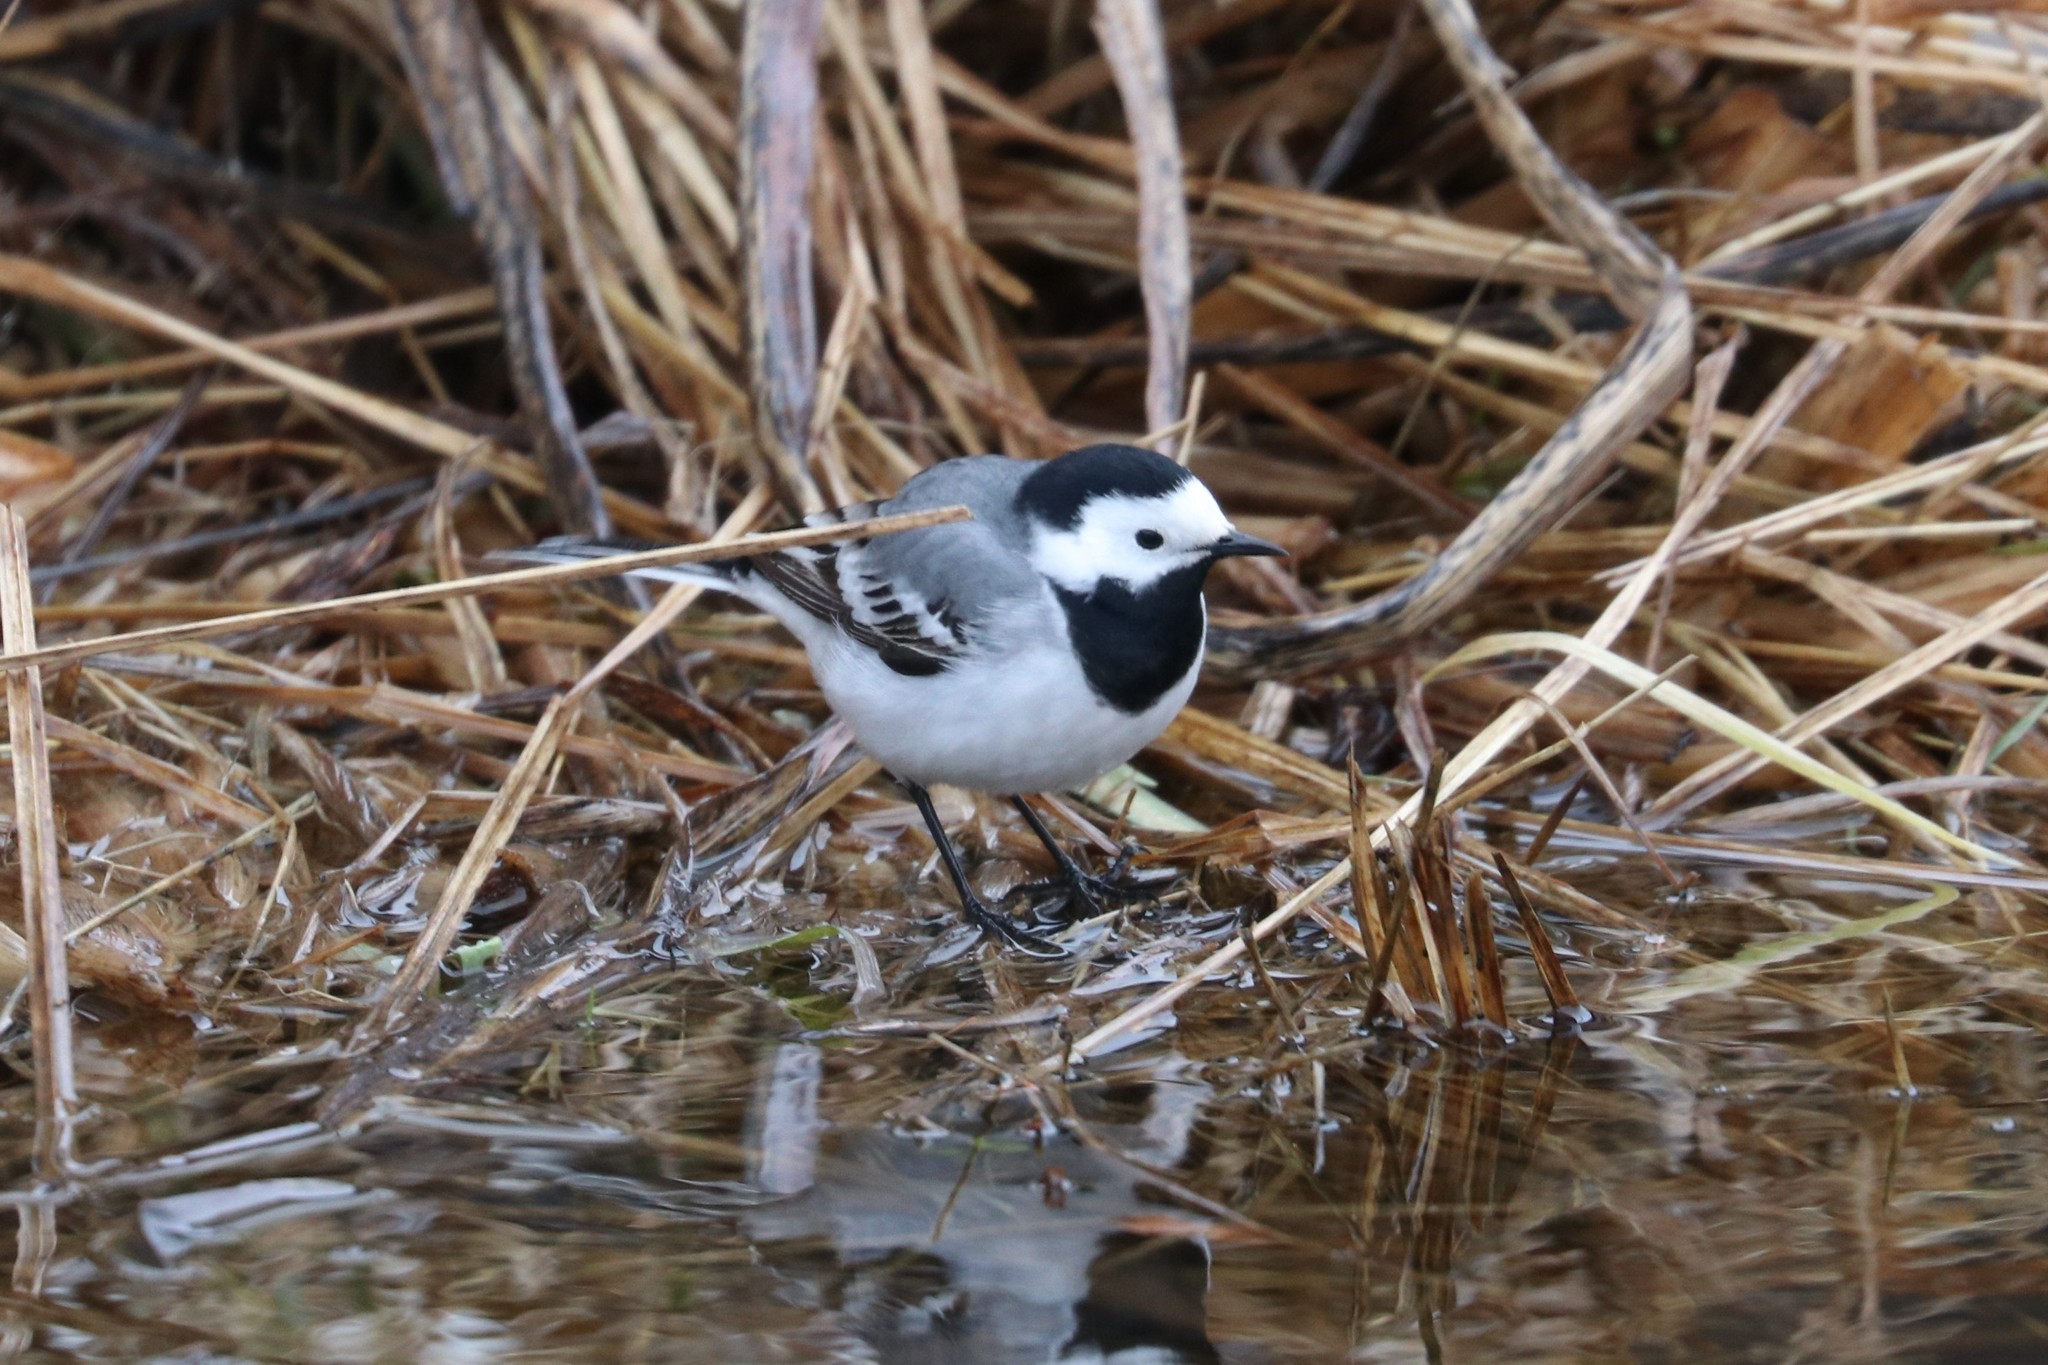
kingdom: Animalia
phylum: Chordata
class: Aves
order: Passeriformes
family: Motacillidae
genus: Motacilla
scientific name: Motacilla alba
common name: White wagtail
